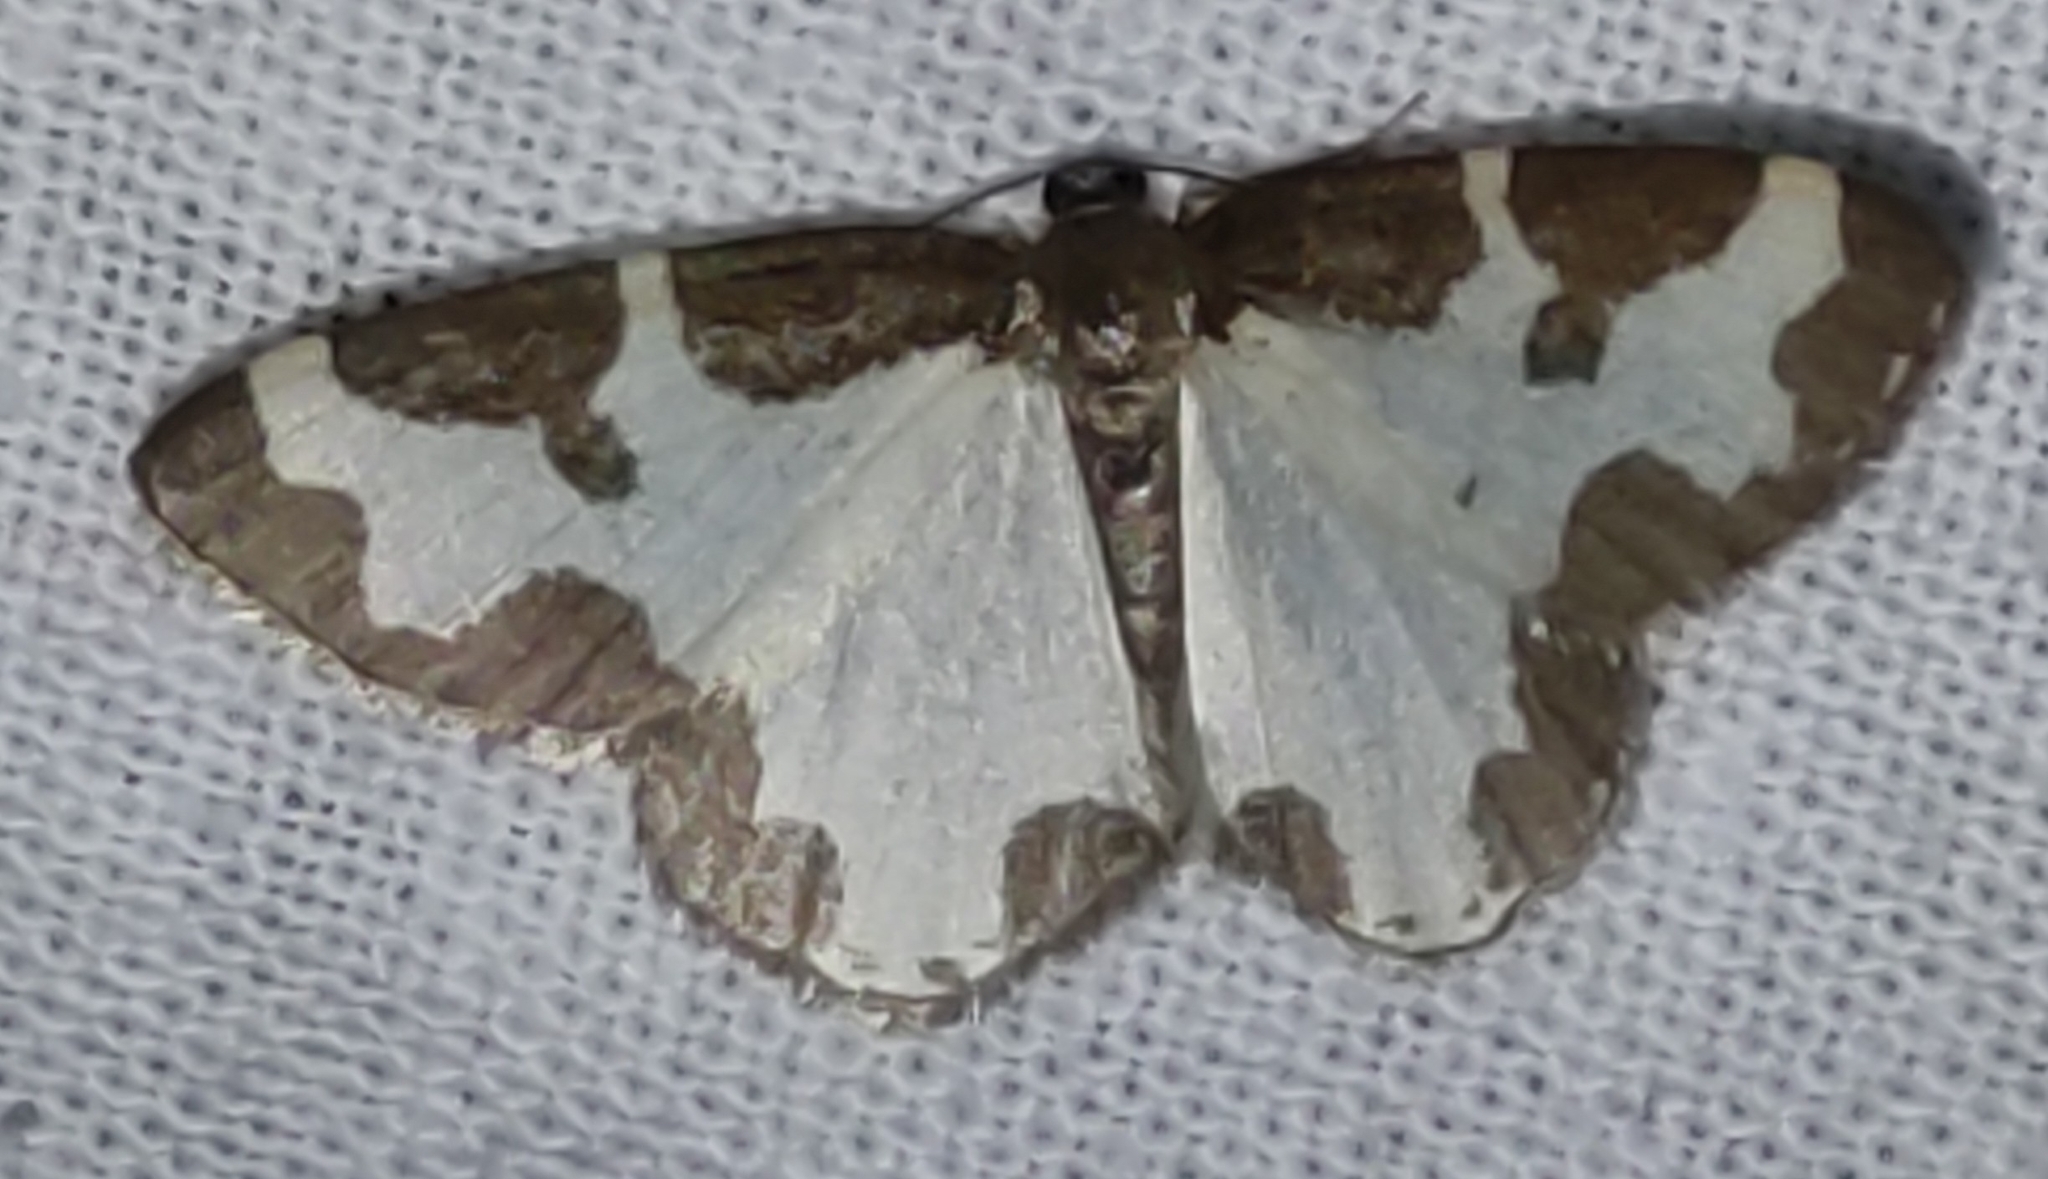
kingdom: Animalia
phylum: Arthropoda
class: Insecta
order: Lepidoptera
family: Geometridae
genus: Lomaspilis
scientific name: Lomaspilis marginata
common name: Clouded border
